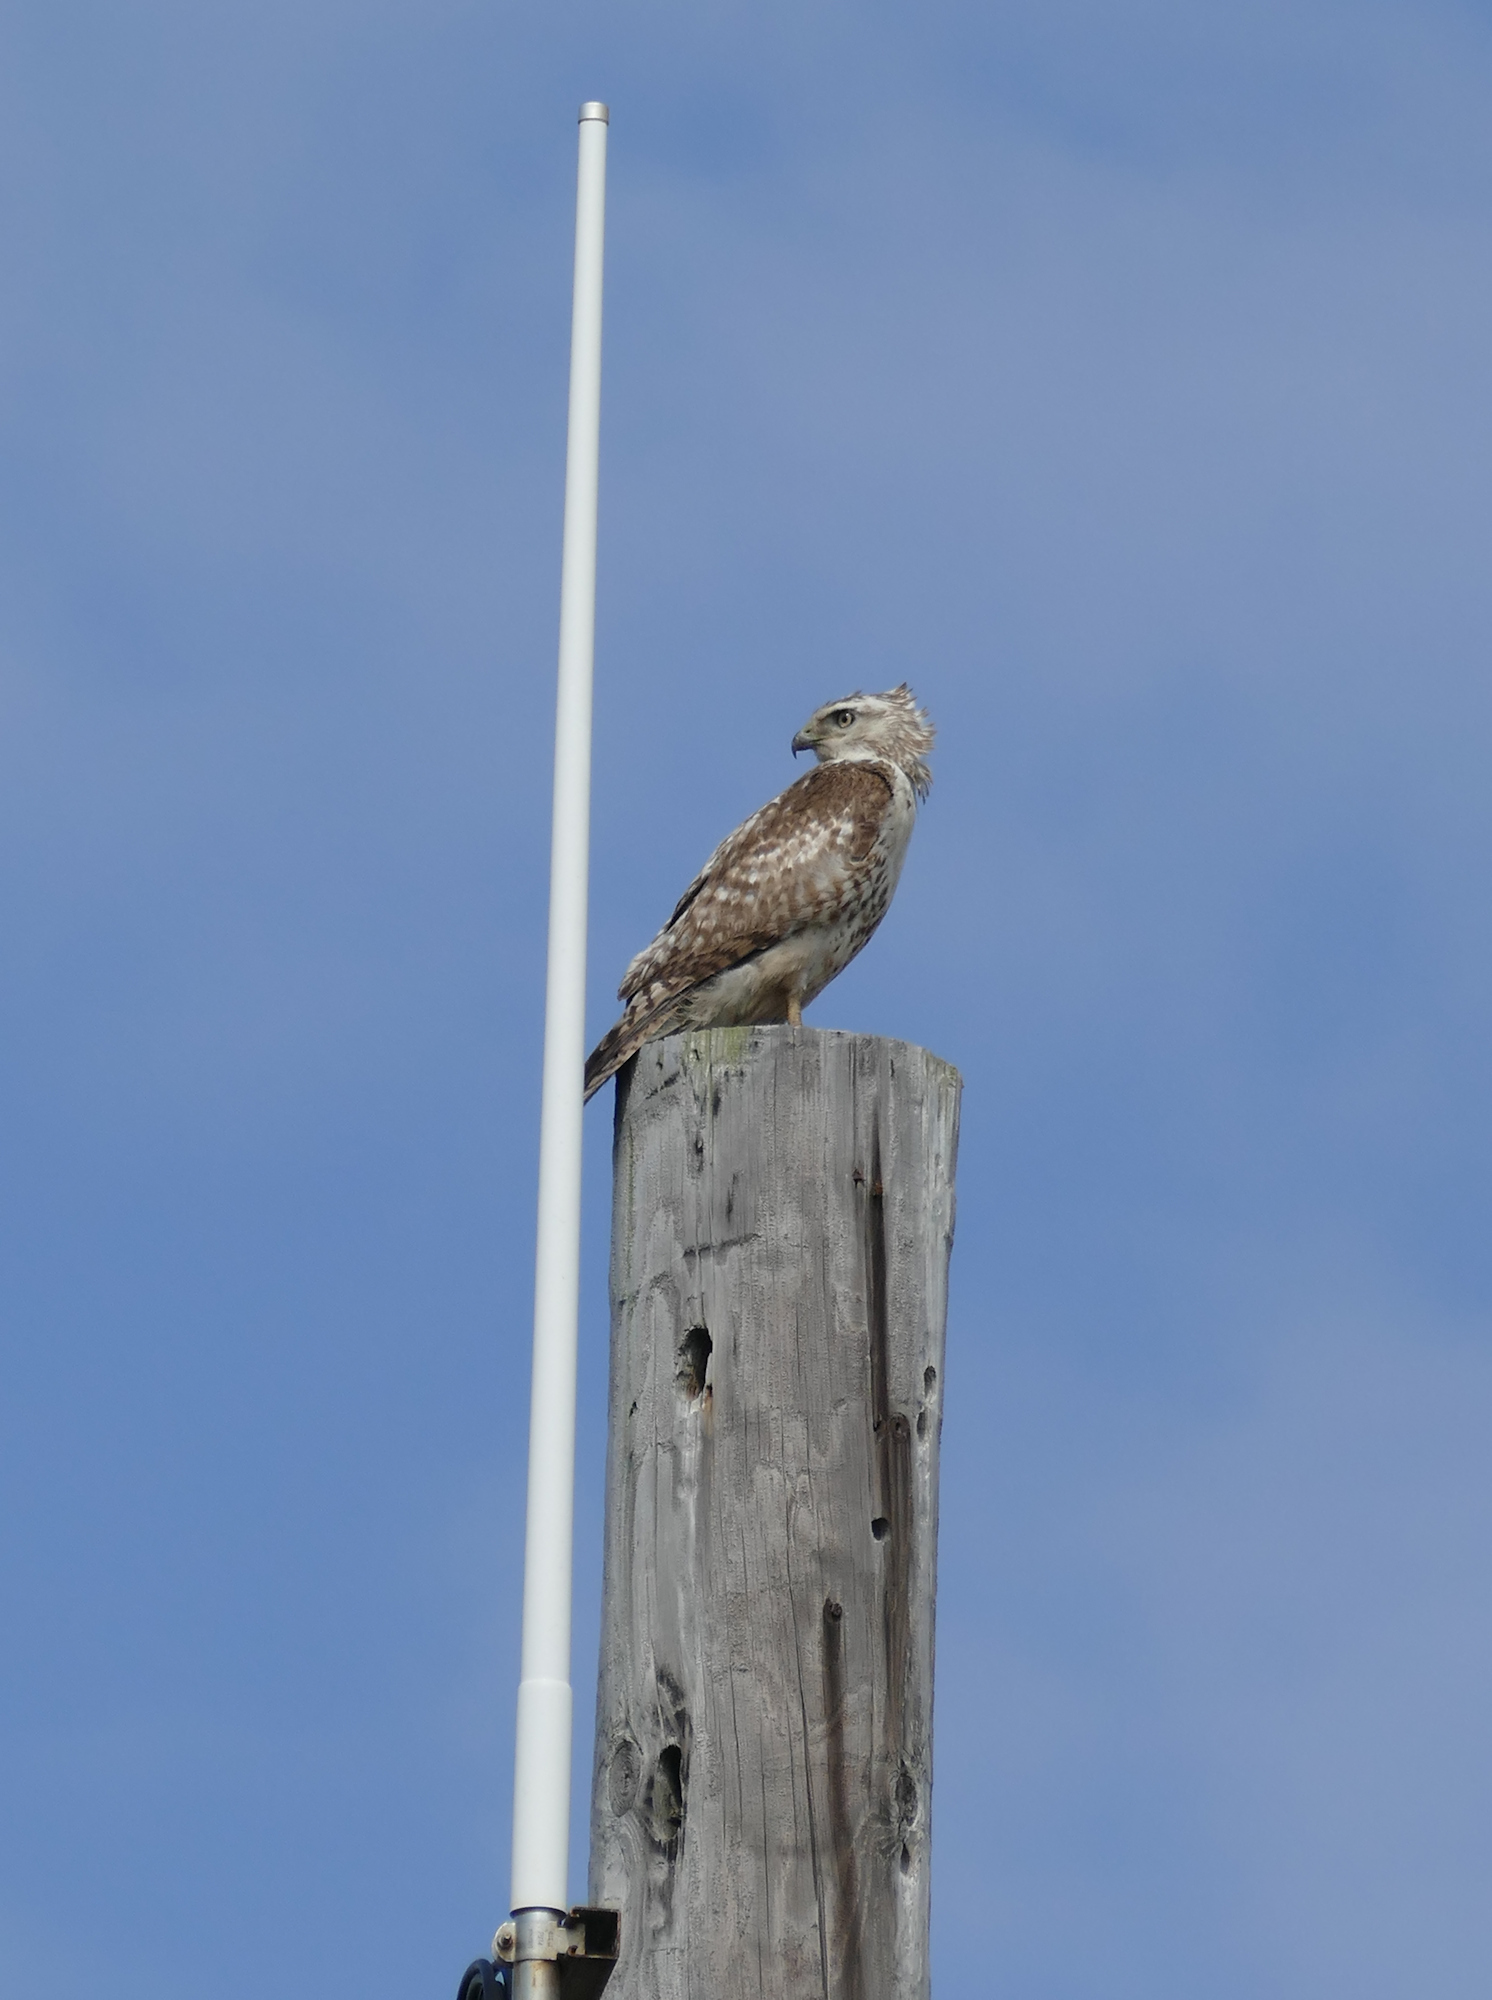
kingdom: Animalia
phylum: Chordata
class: Aves
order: Accipitriformes
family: Accipitridae
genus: Buteo
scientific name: Buteo jamaicensis
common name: Red-tailed hawk
